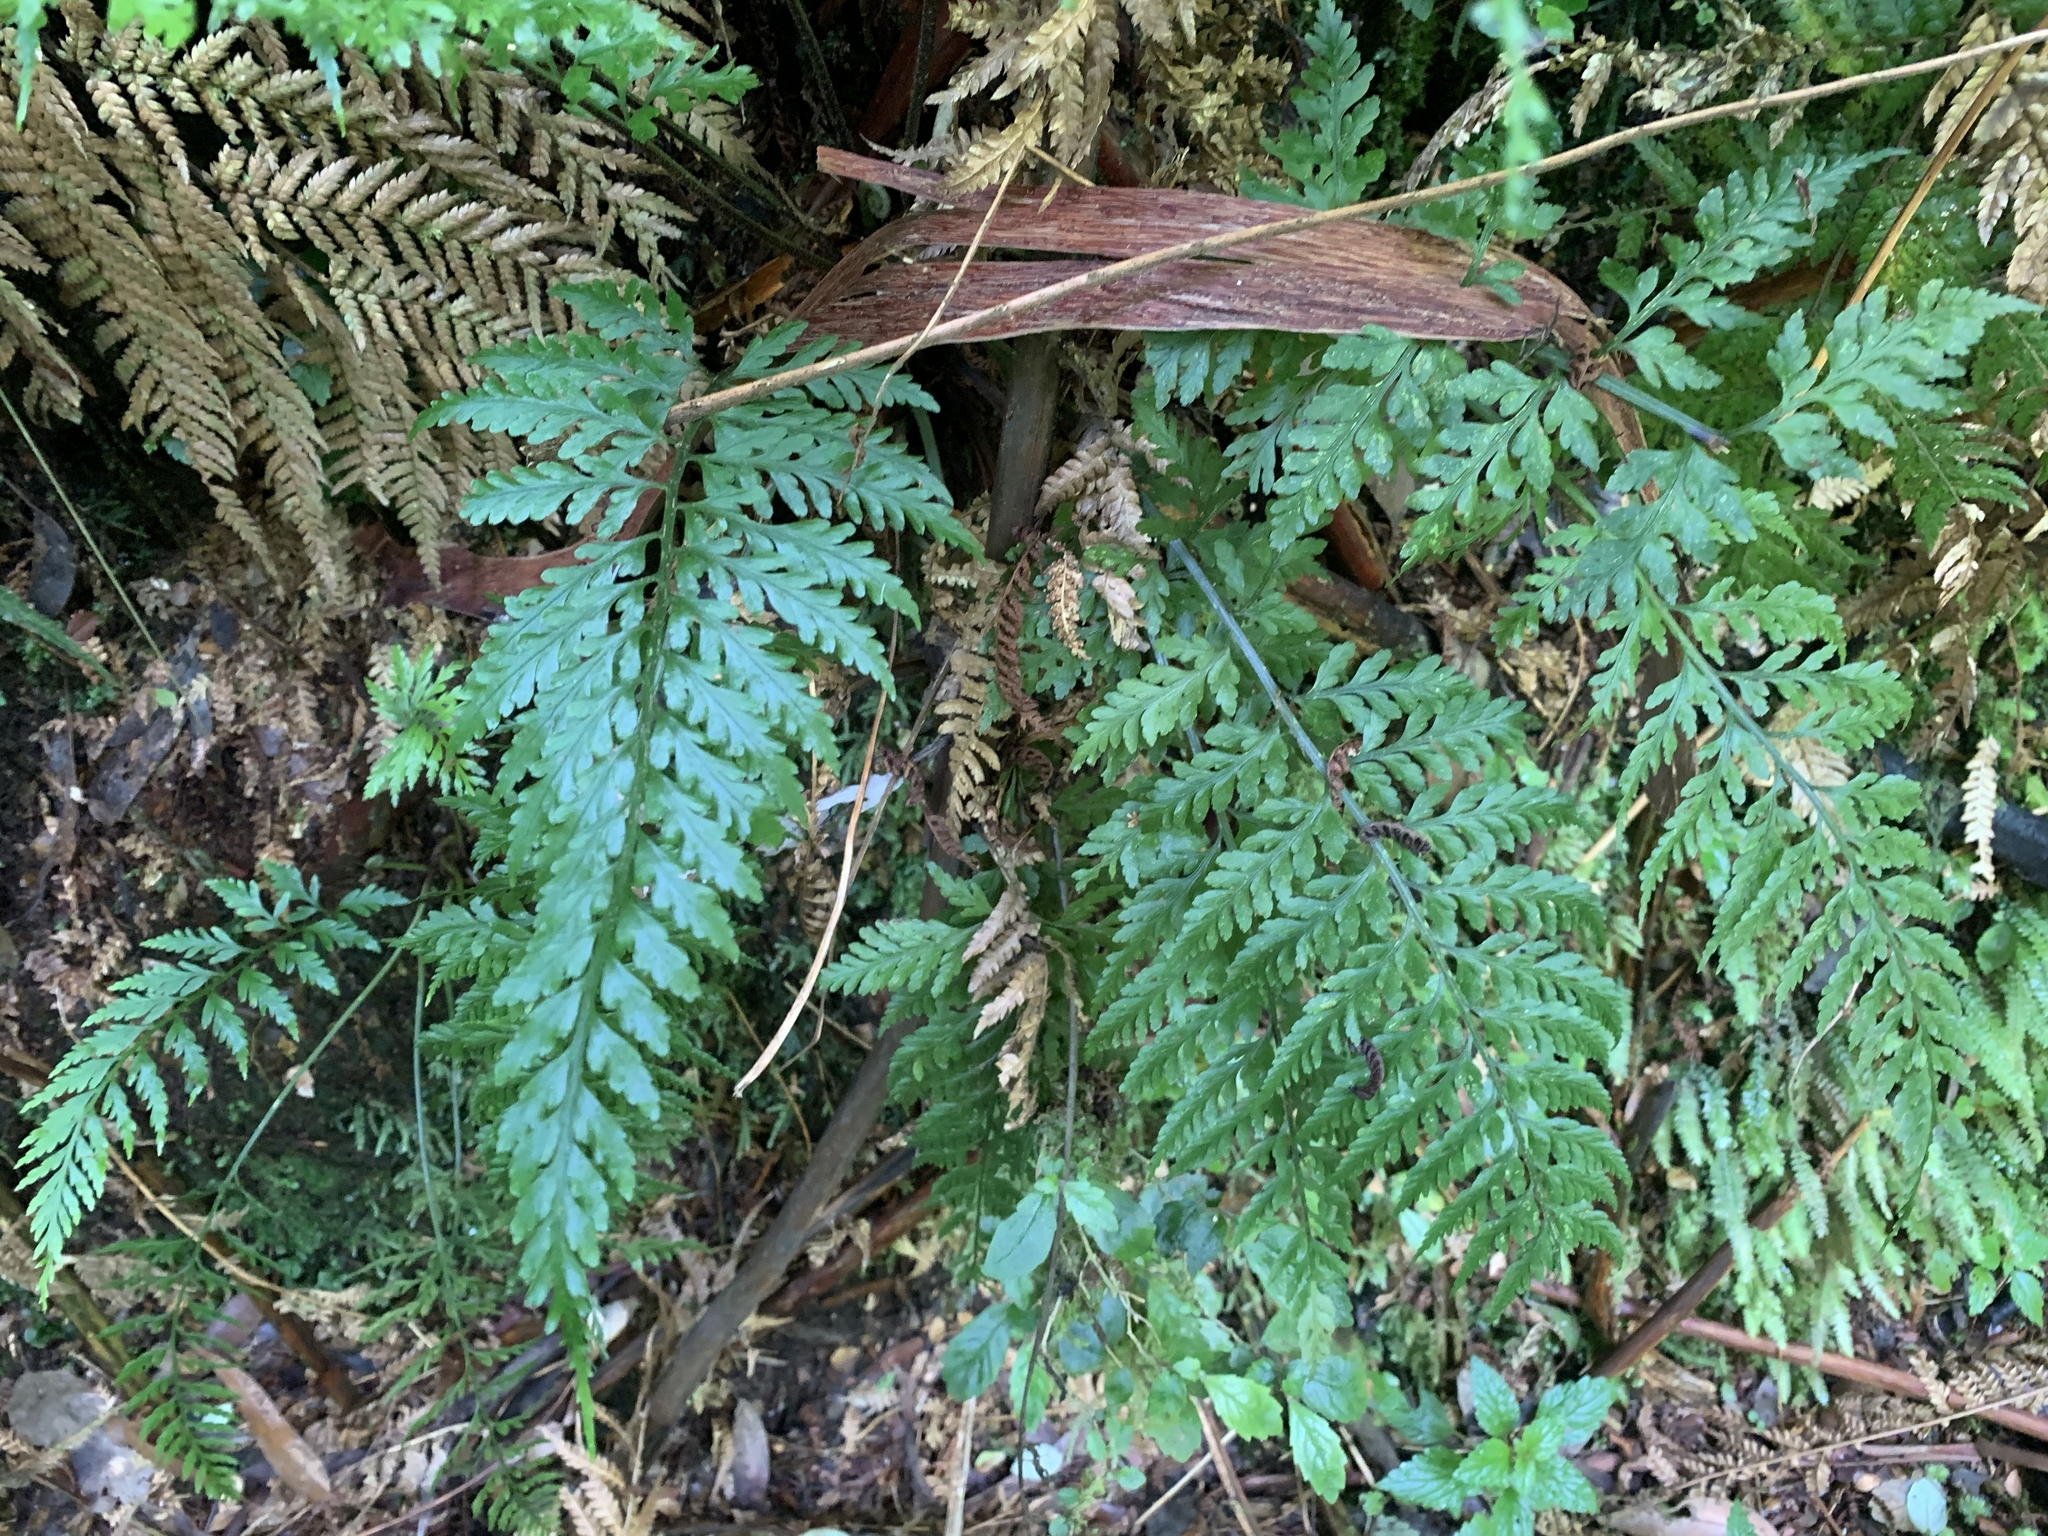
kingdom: Plantae
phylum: Tracheophyta
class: Polypodiopsida
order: Polypodiales
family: Aspleniaceae
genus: Asplenium
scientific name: Asplenium
